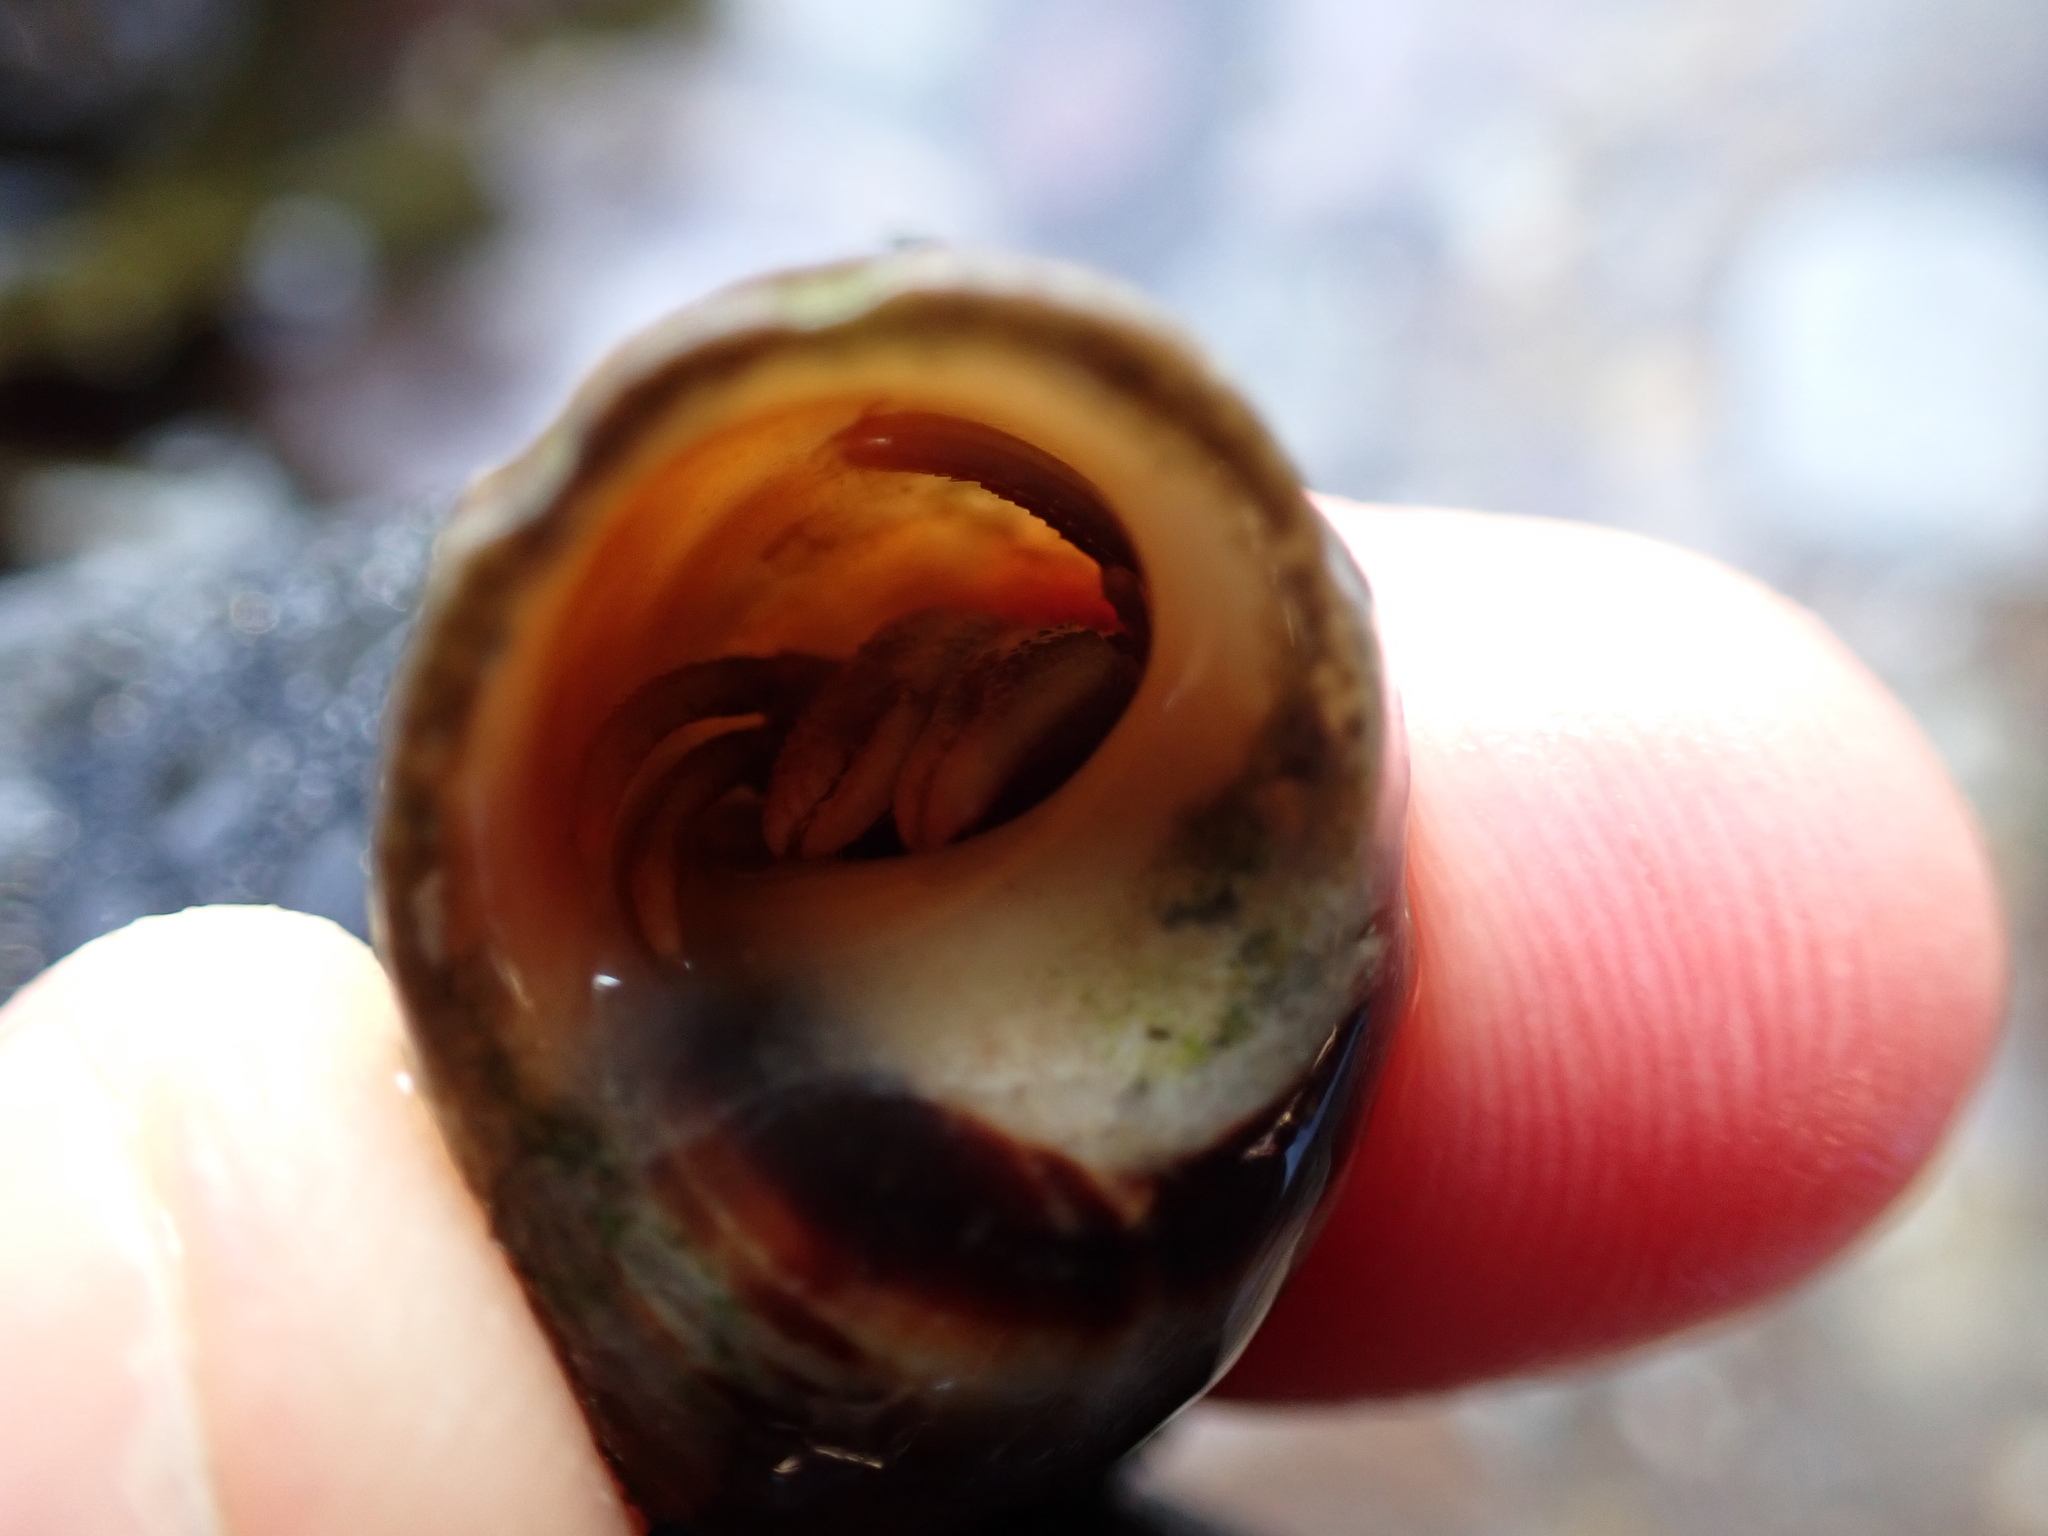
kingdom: Animalia
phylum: Arthropoda
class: Malacostraca
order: Decapoda
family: Paguridae
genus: Pagurus
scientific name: Pagurus bernhardus
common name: Hermit crab
